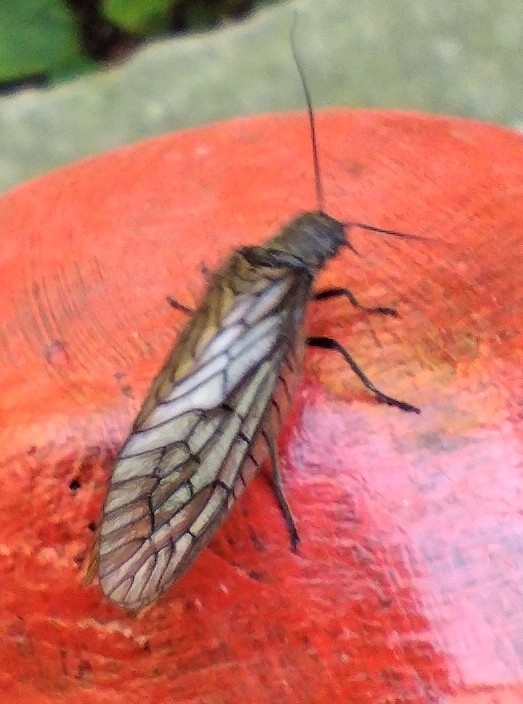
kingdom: Animalia
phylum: Arthropoda
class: Insecta
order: Megaloptera
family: Sialidae
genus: Sialis
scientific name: Sialis
